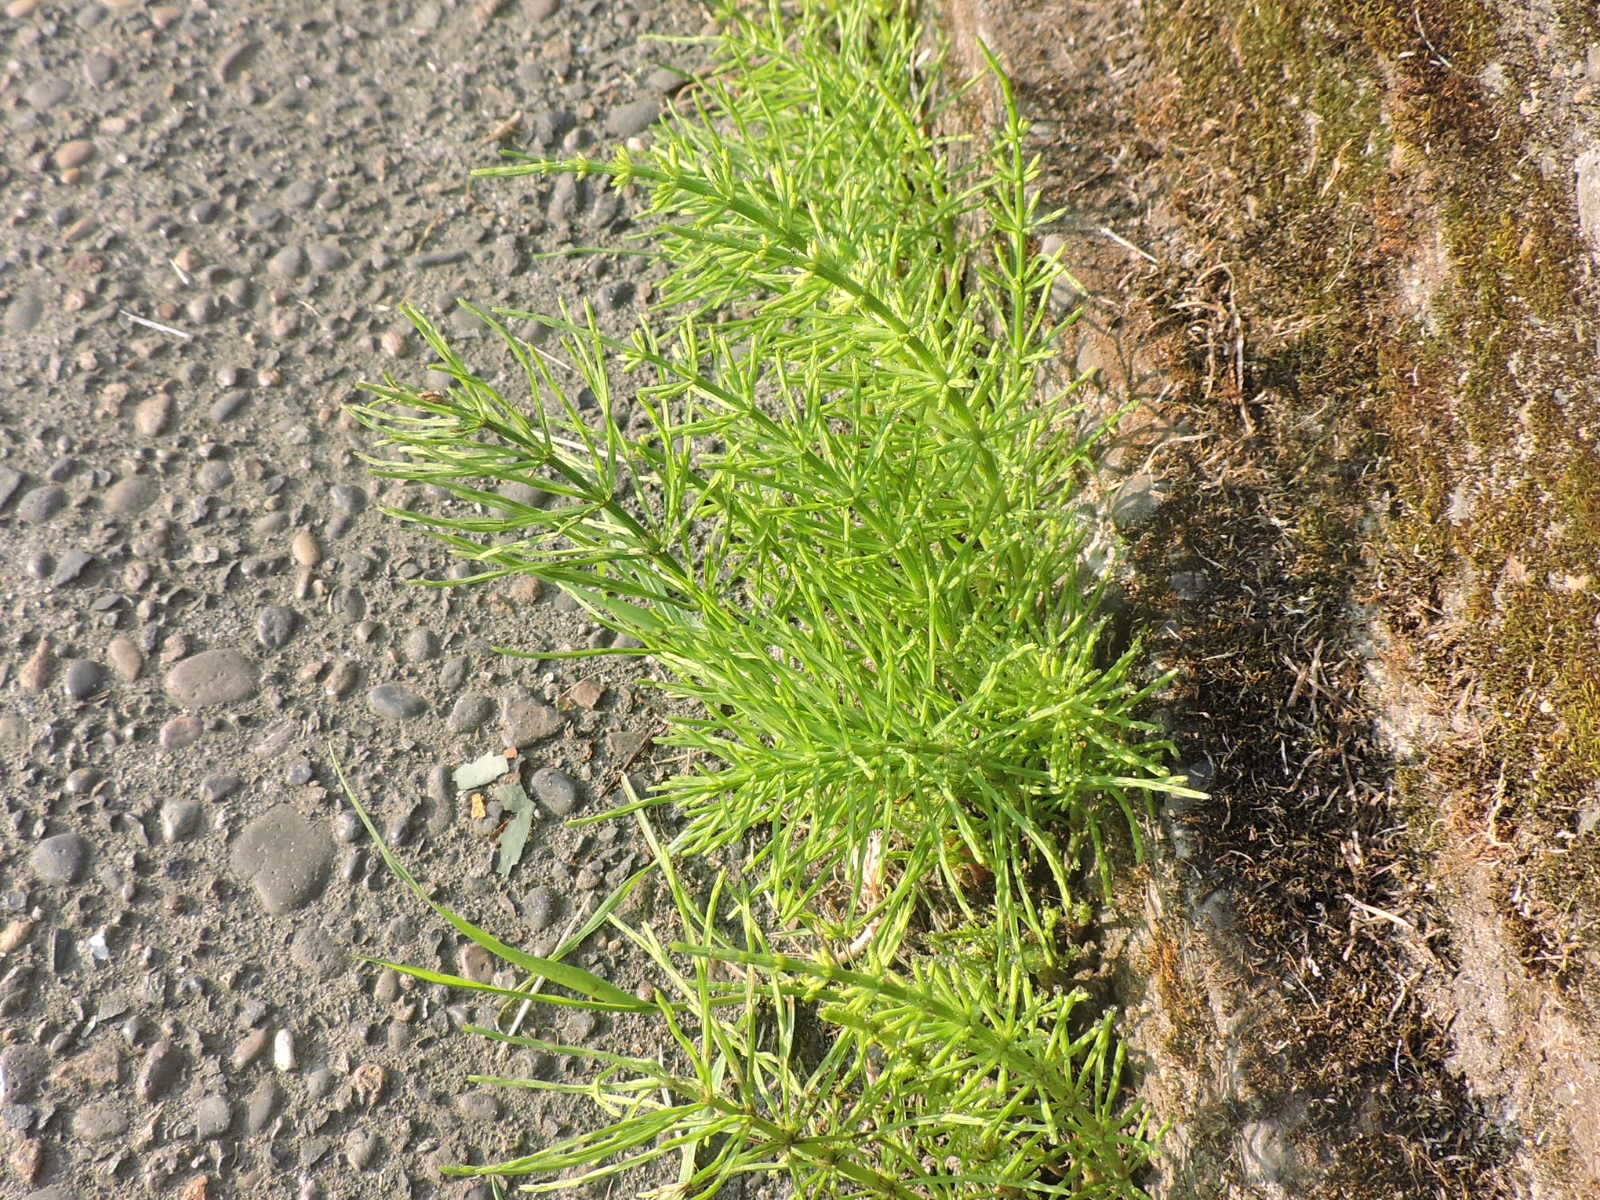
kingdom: Plantae
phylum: Tracheophyta
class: Polypodiopsida
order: Equisetales
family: Equisetaceae
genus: Equisetum
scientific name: Equisetum arvense
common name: Field horsetail
